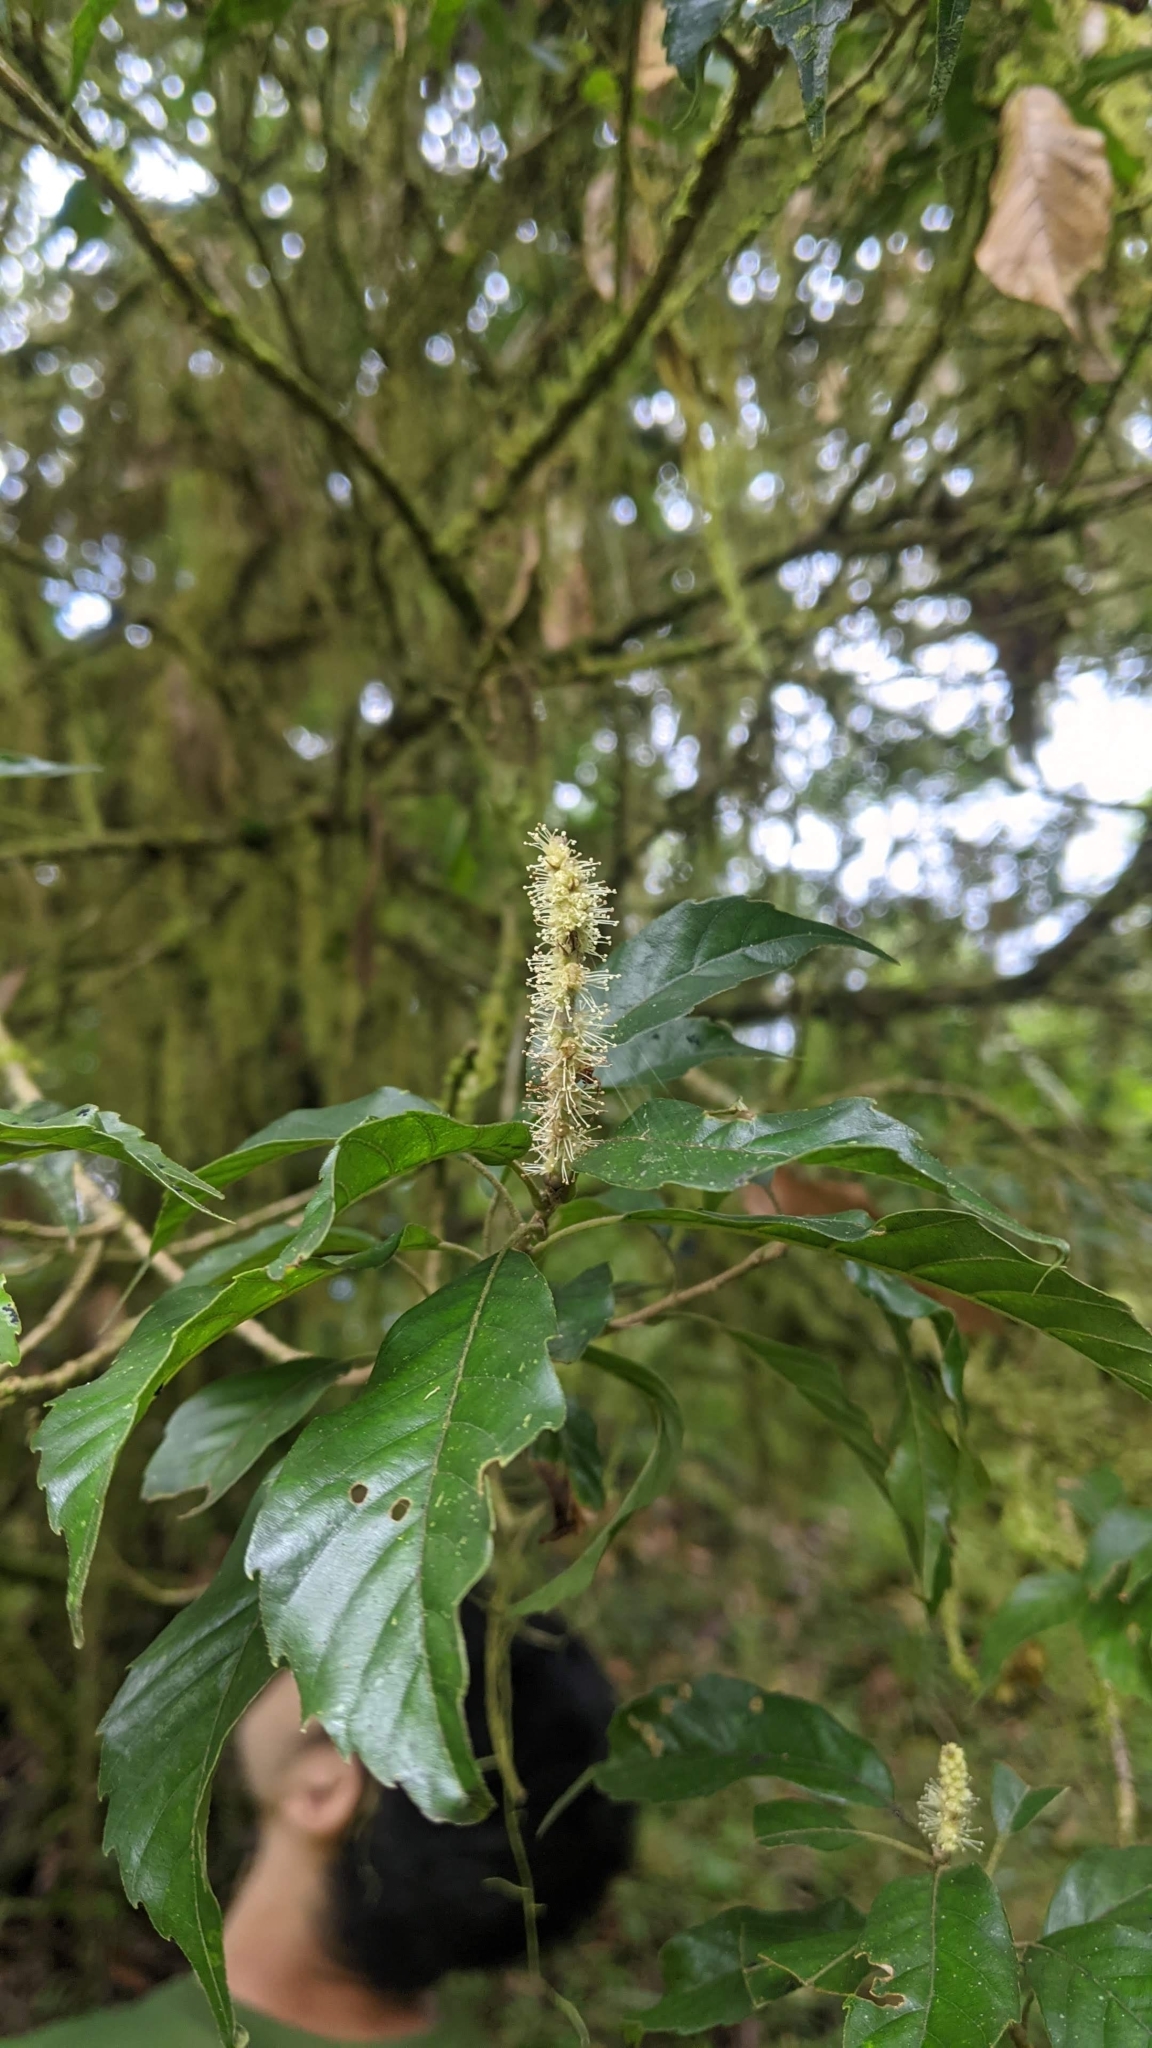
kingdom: Plantae
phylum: Tracheophyta
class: Magnoliopsida
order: Fagales
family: Fagaceae
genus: Lithocarpus
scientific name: Lithocarpus corneus
